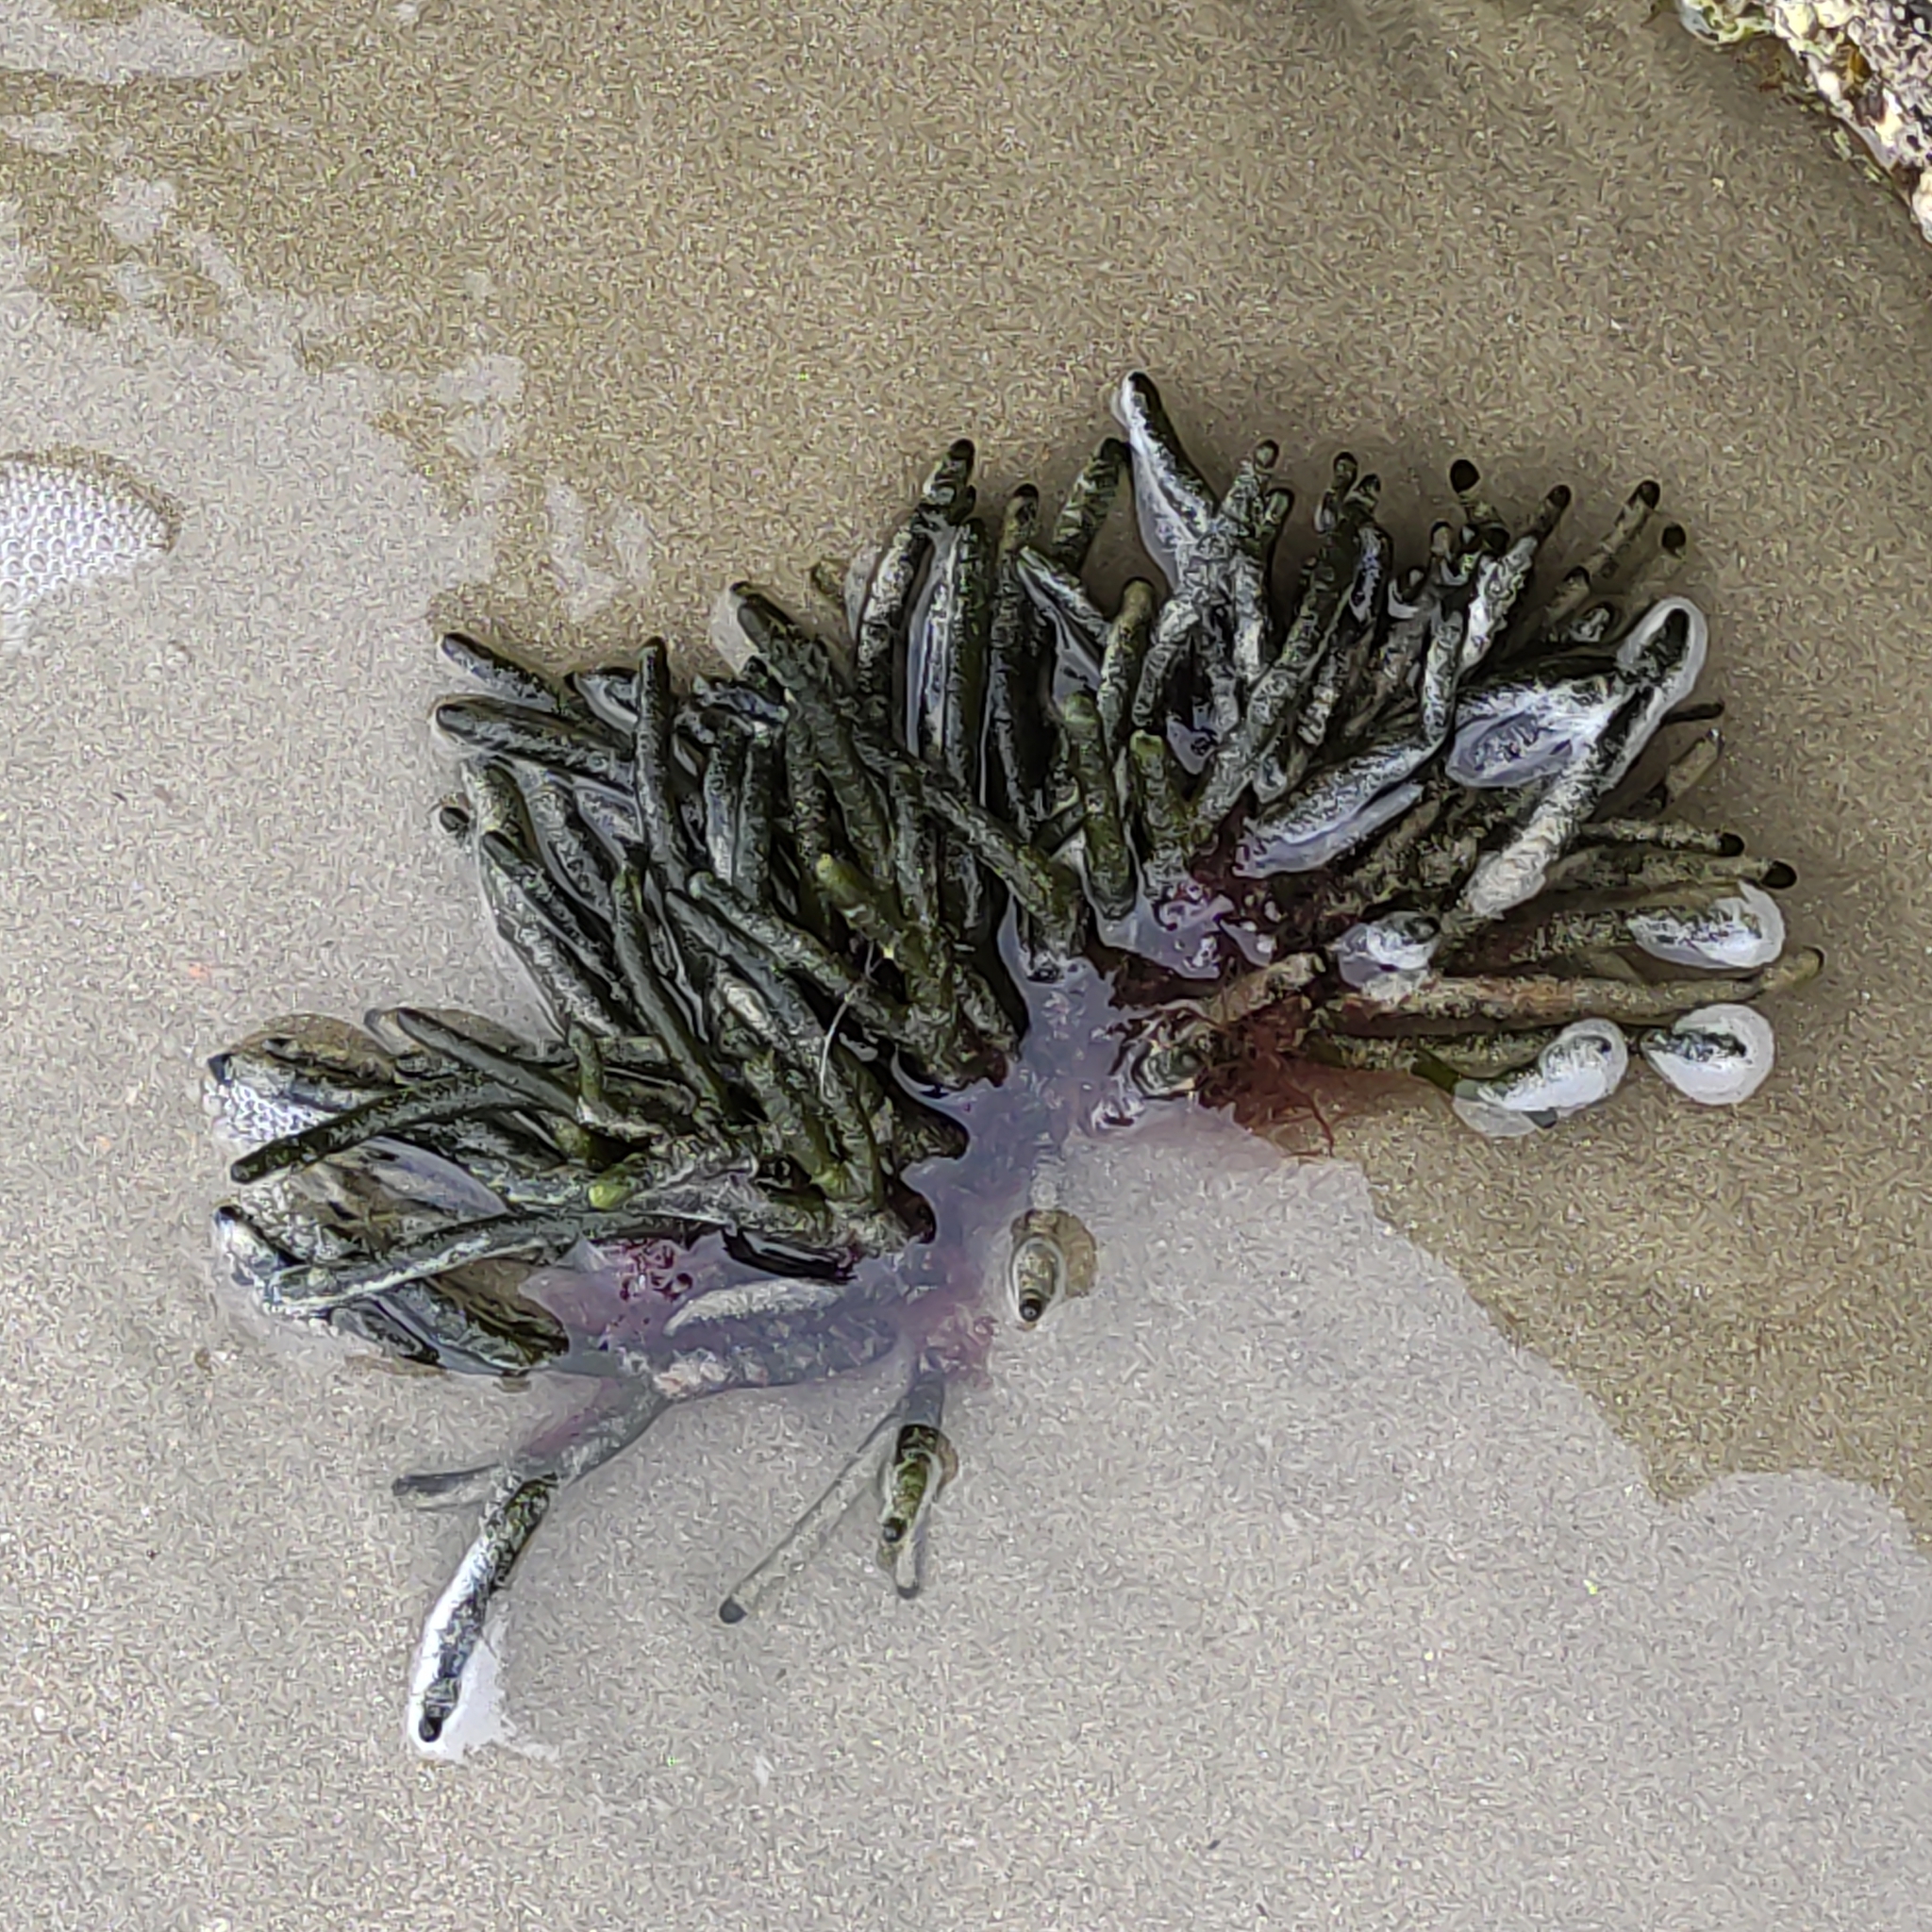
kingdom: Plantae
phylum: Chlorophyta
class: Ulvophyceae
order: Bryopsidales
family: Codiaceae
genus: Codium
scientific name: Codium fragile
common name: Dead man's fingers
